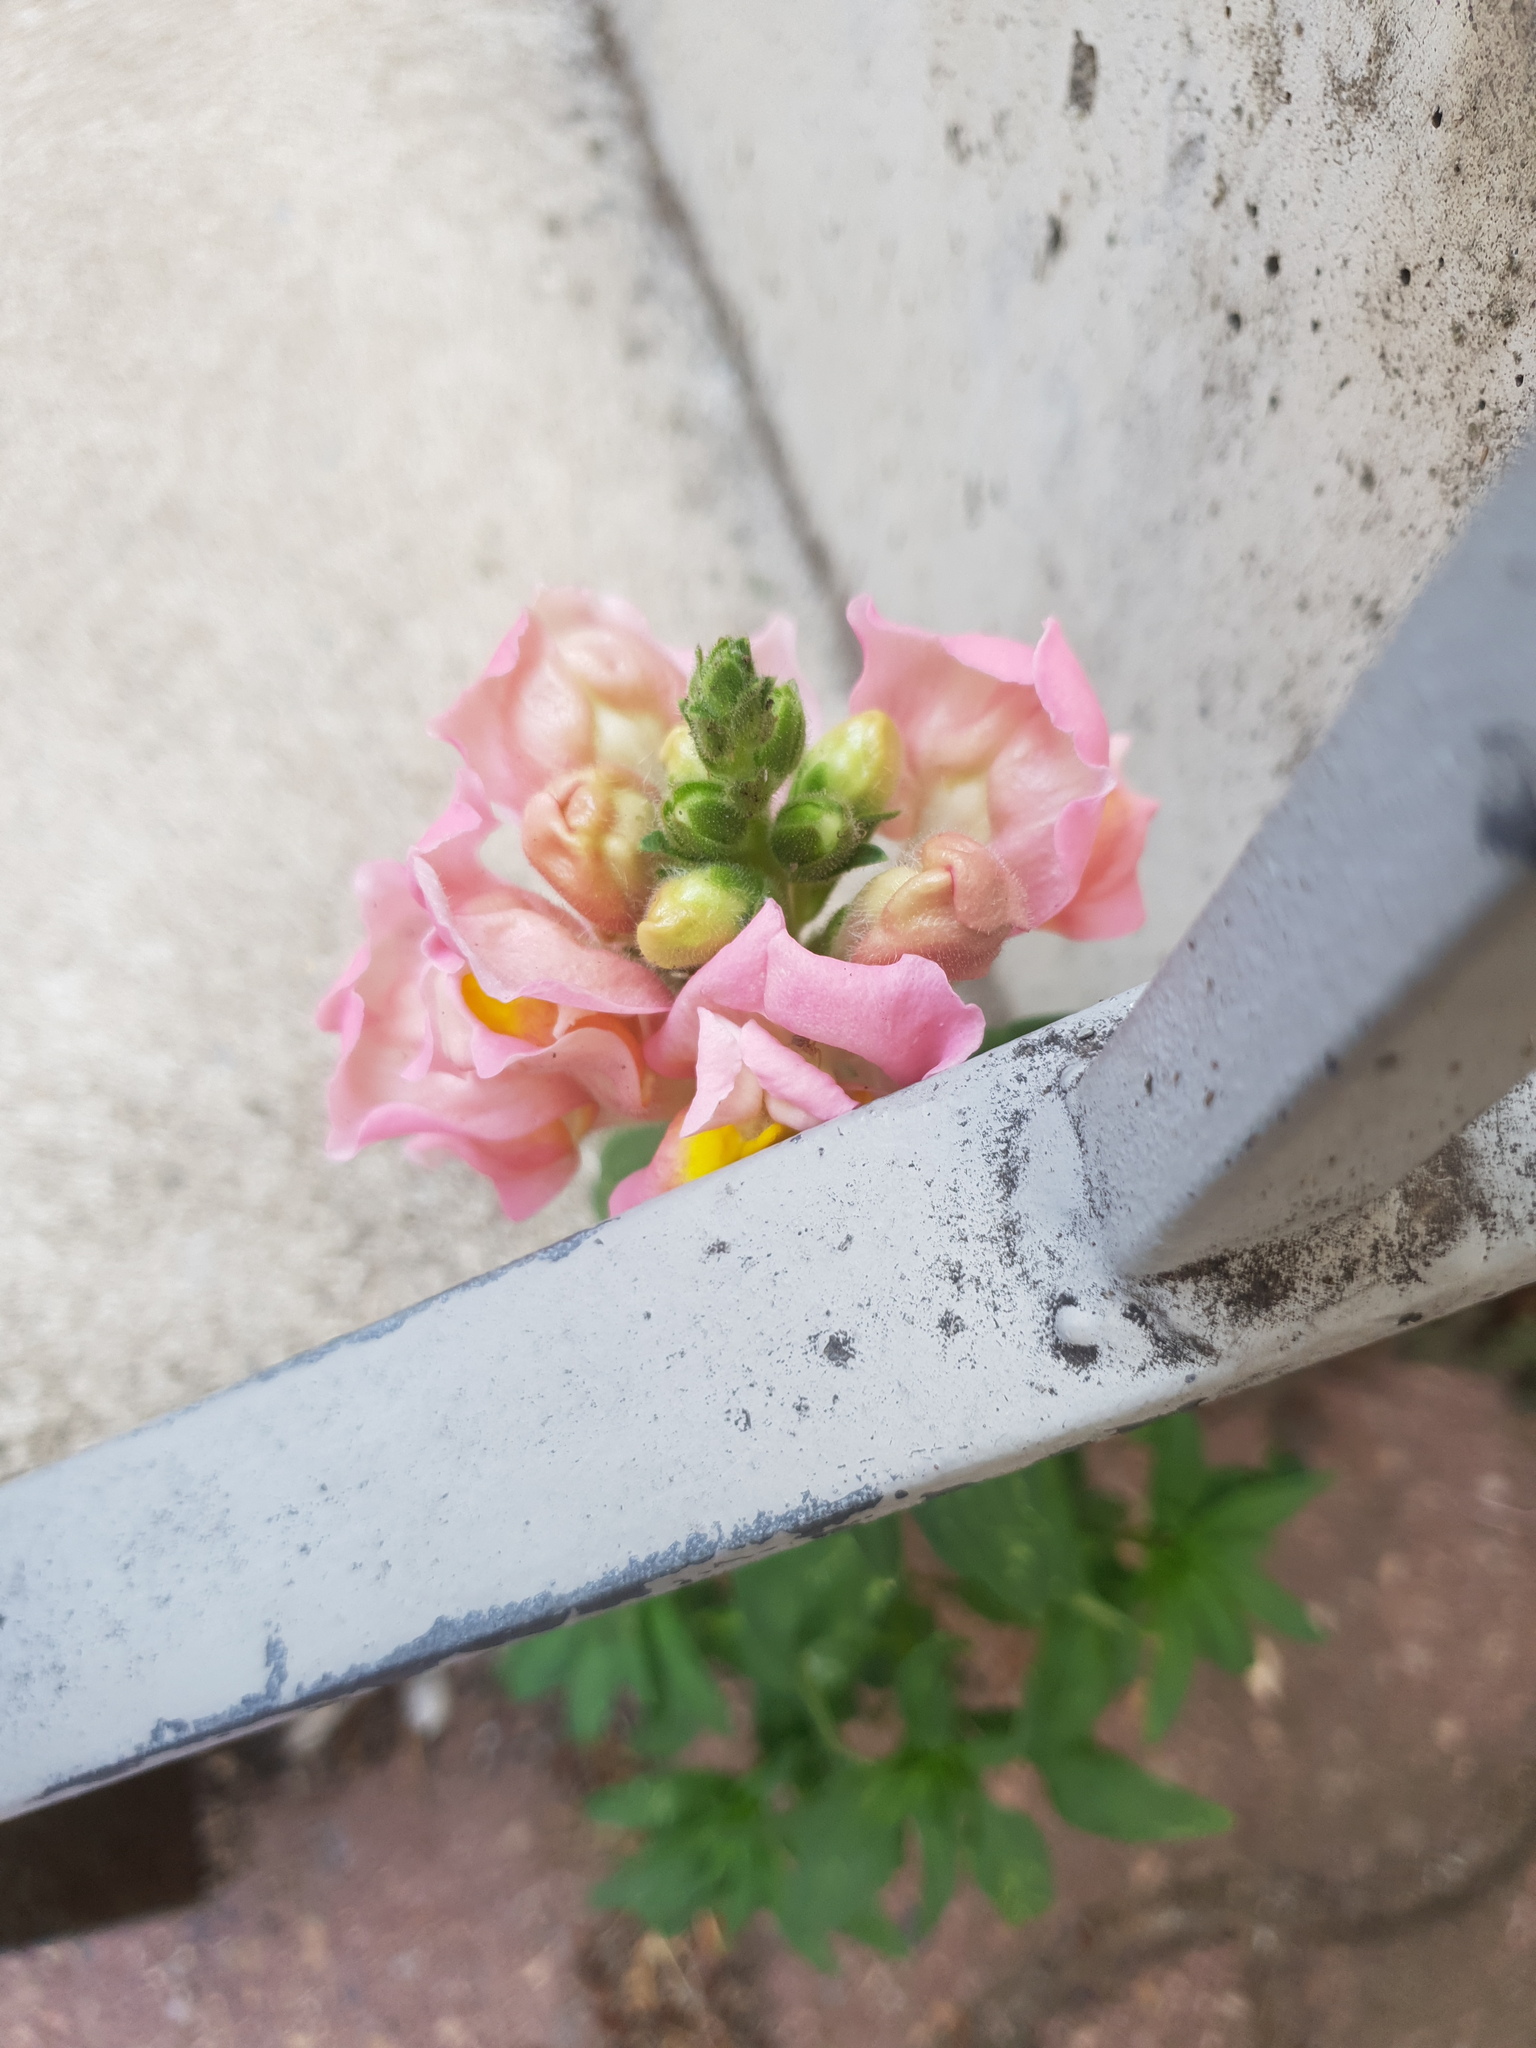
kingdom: Plantae
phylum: Tracheophyta
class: Magnoliopsida
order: Lamiales
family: Plantaginaceae
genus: Antirrhinum
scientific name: Antirrhinum majus
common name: Snapdragon
